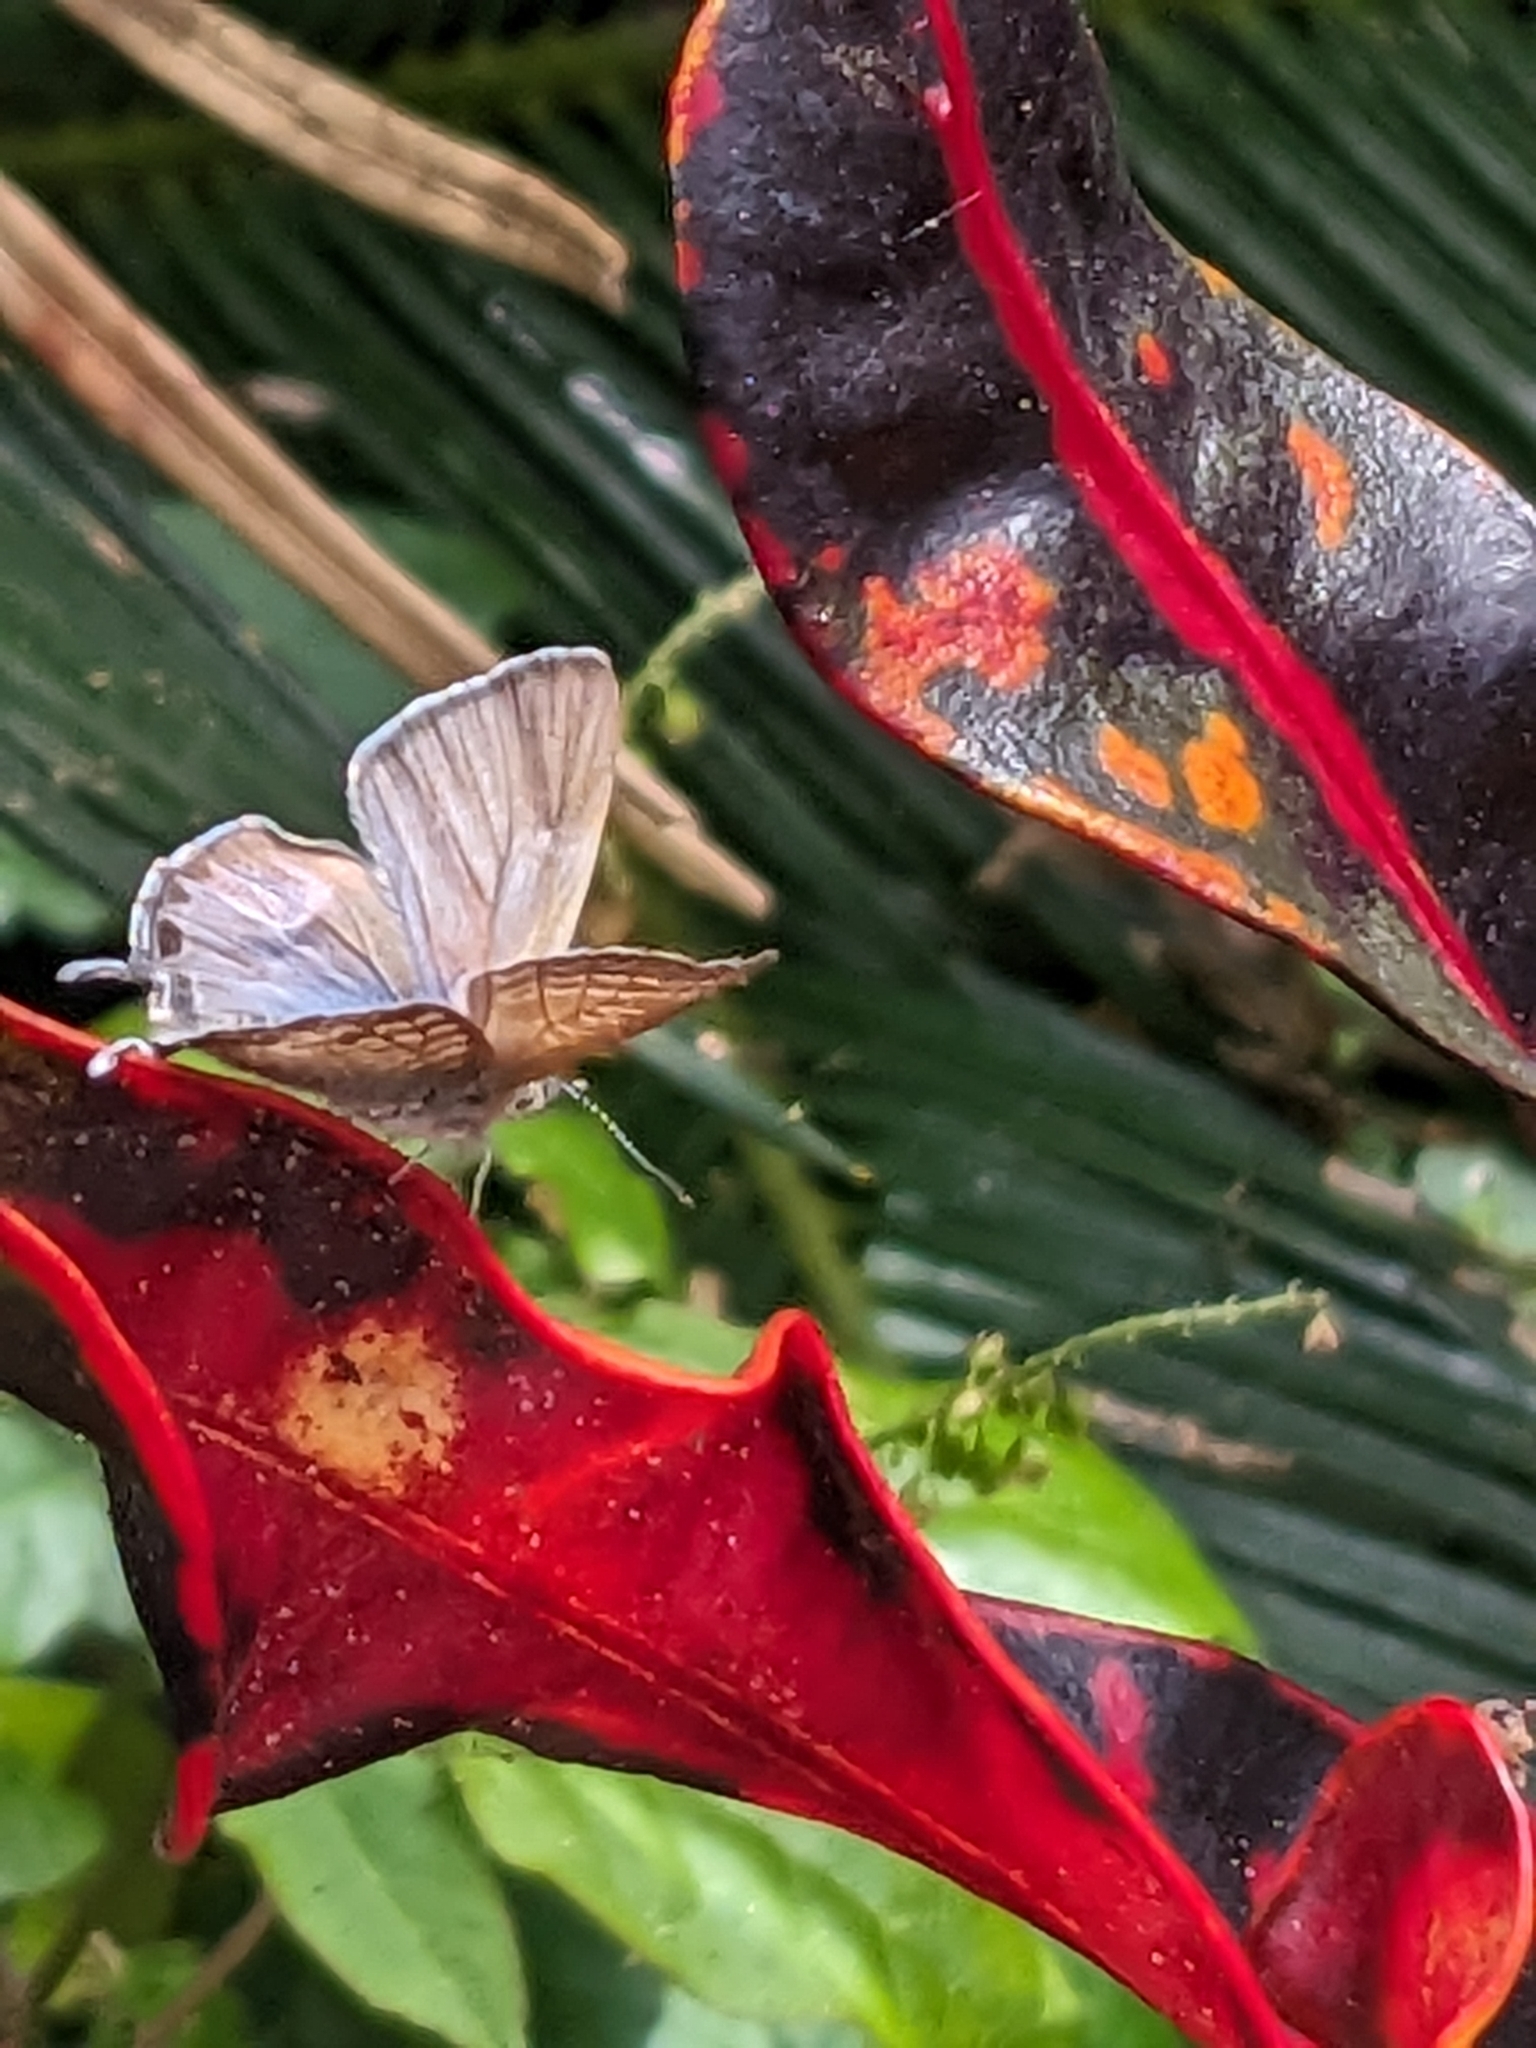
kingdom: Animalia
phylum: Arthropoda
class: Insecta
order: Lepidoptera
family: Lycaenidae
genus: Theclinesthes
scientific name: Theclinesthes onycha
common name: Cycad blue
